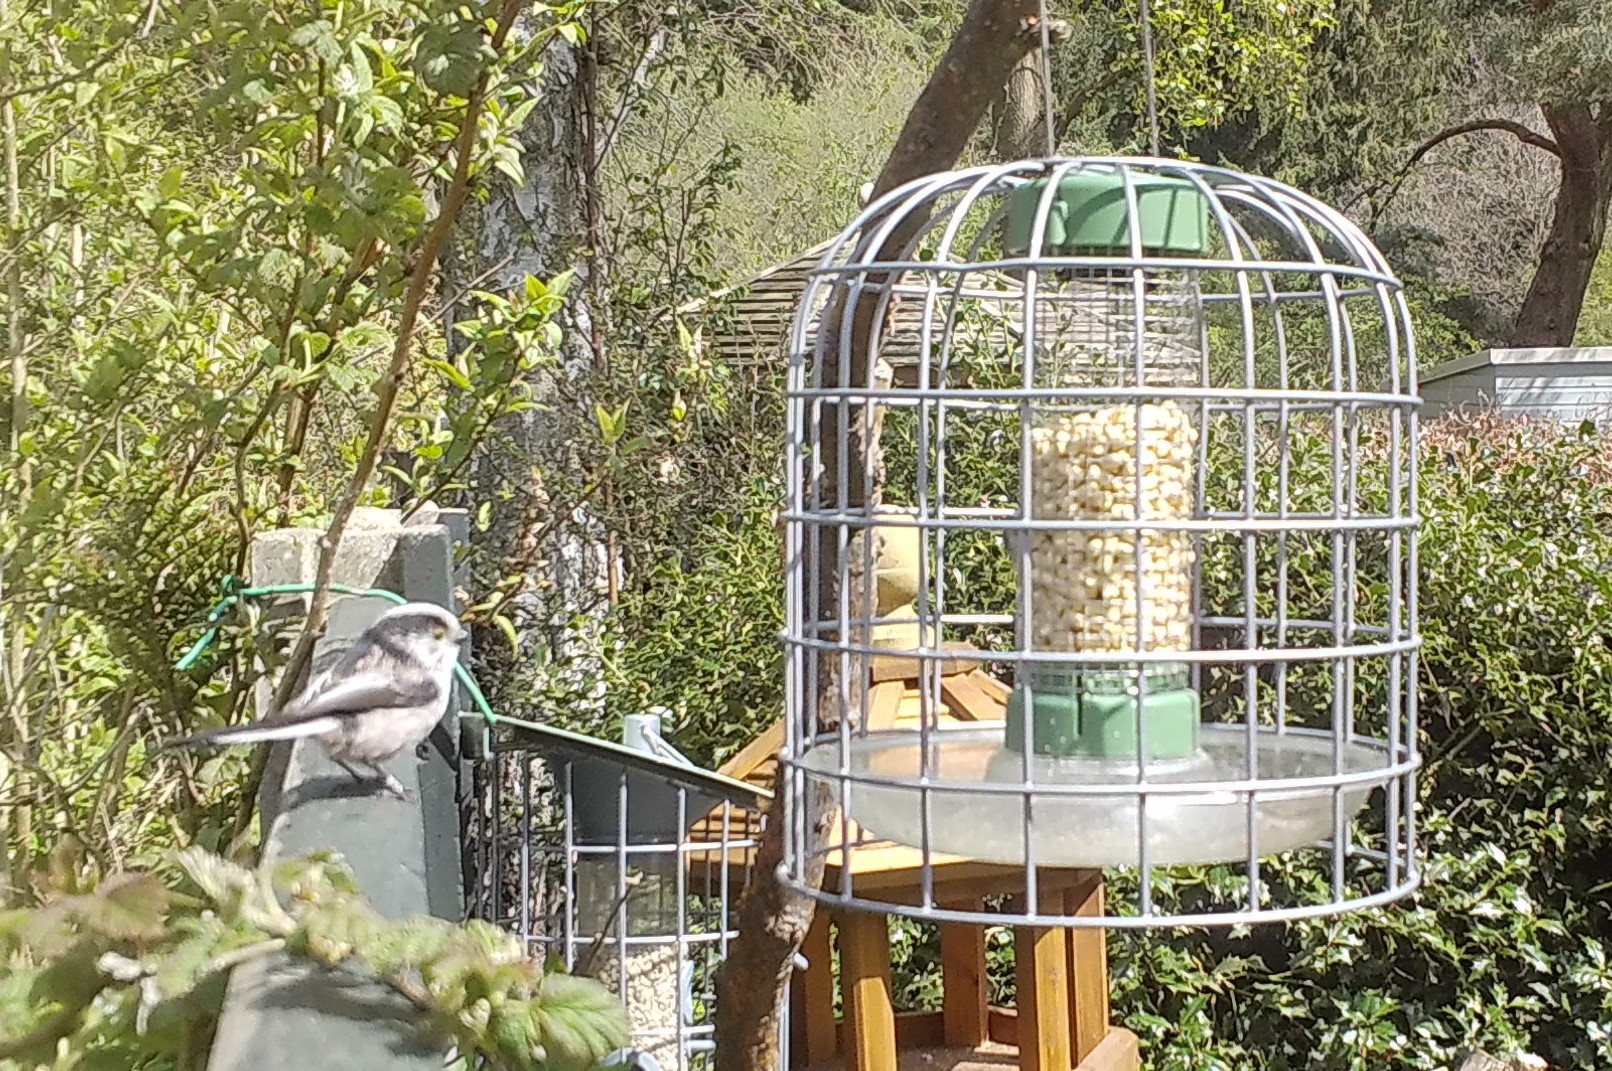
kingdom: Animalia
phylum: Chordata
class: Aves
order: Passeriformes
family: Aegithalidae
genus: Aegithalos
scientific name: Aegithalos caudatus
